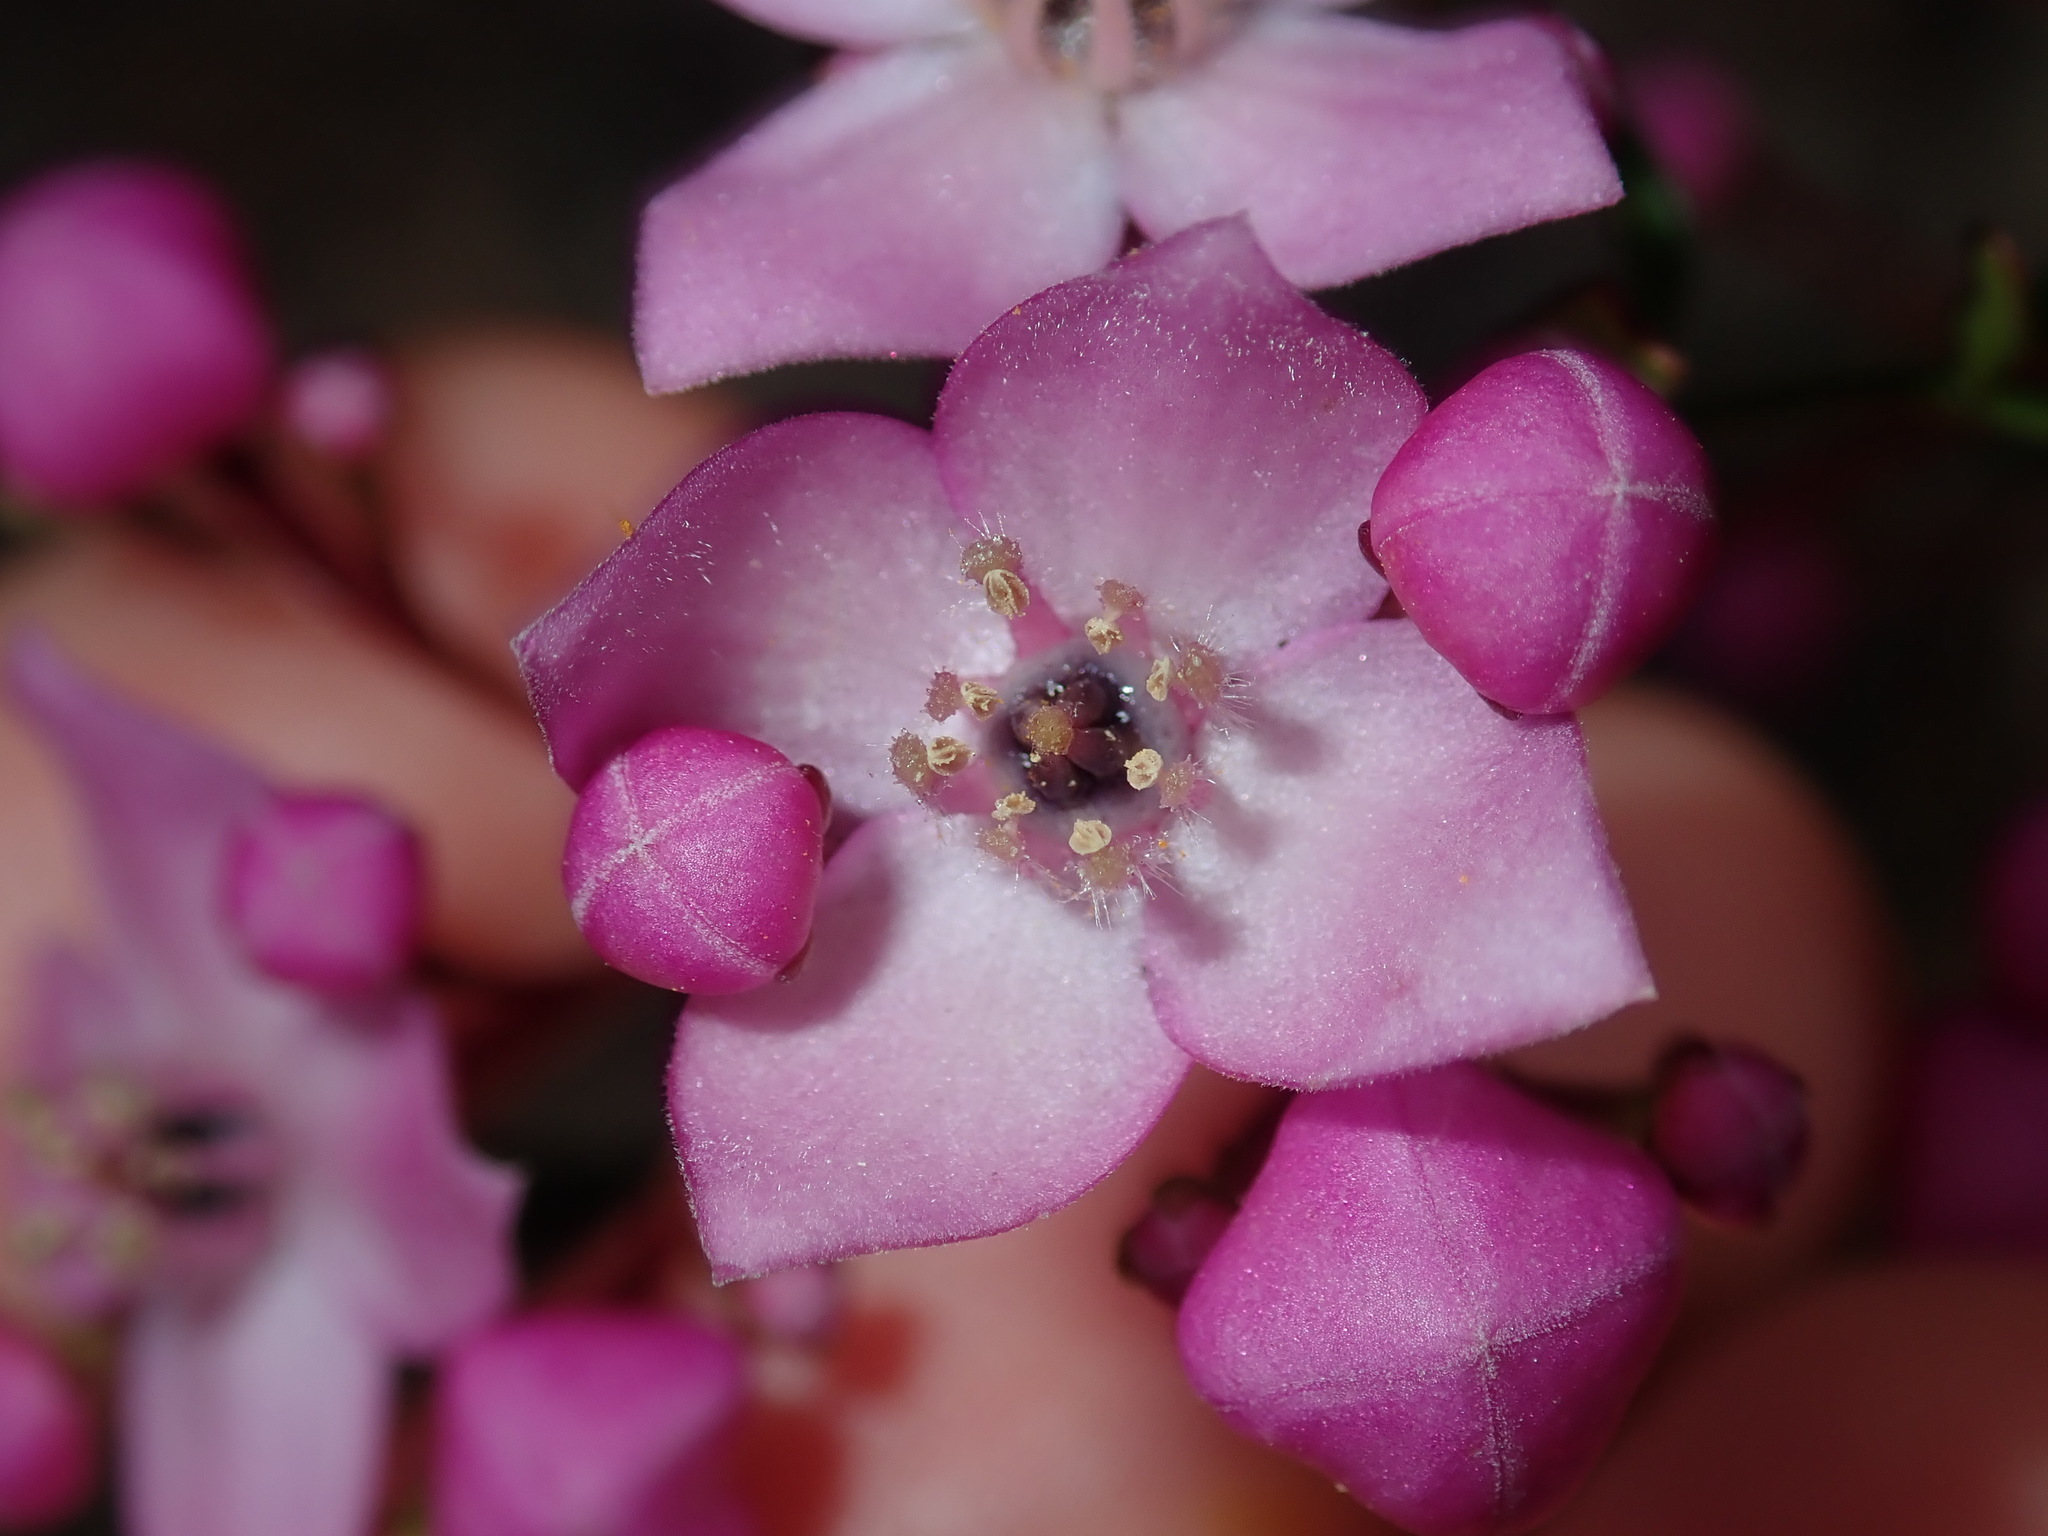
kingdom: Plantae
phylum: Tracheophyta
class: Magnoliopsida
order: Sapindales
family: Rutaceae
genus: Boronia
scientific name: Boronia pinnata
